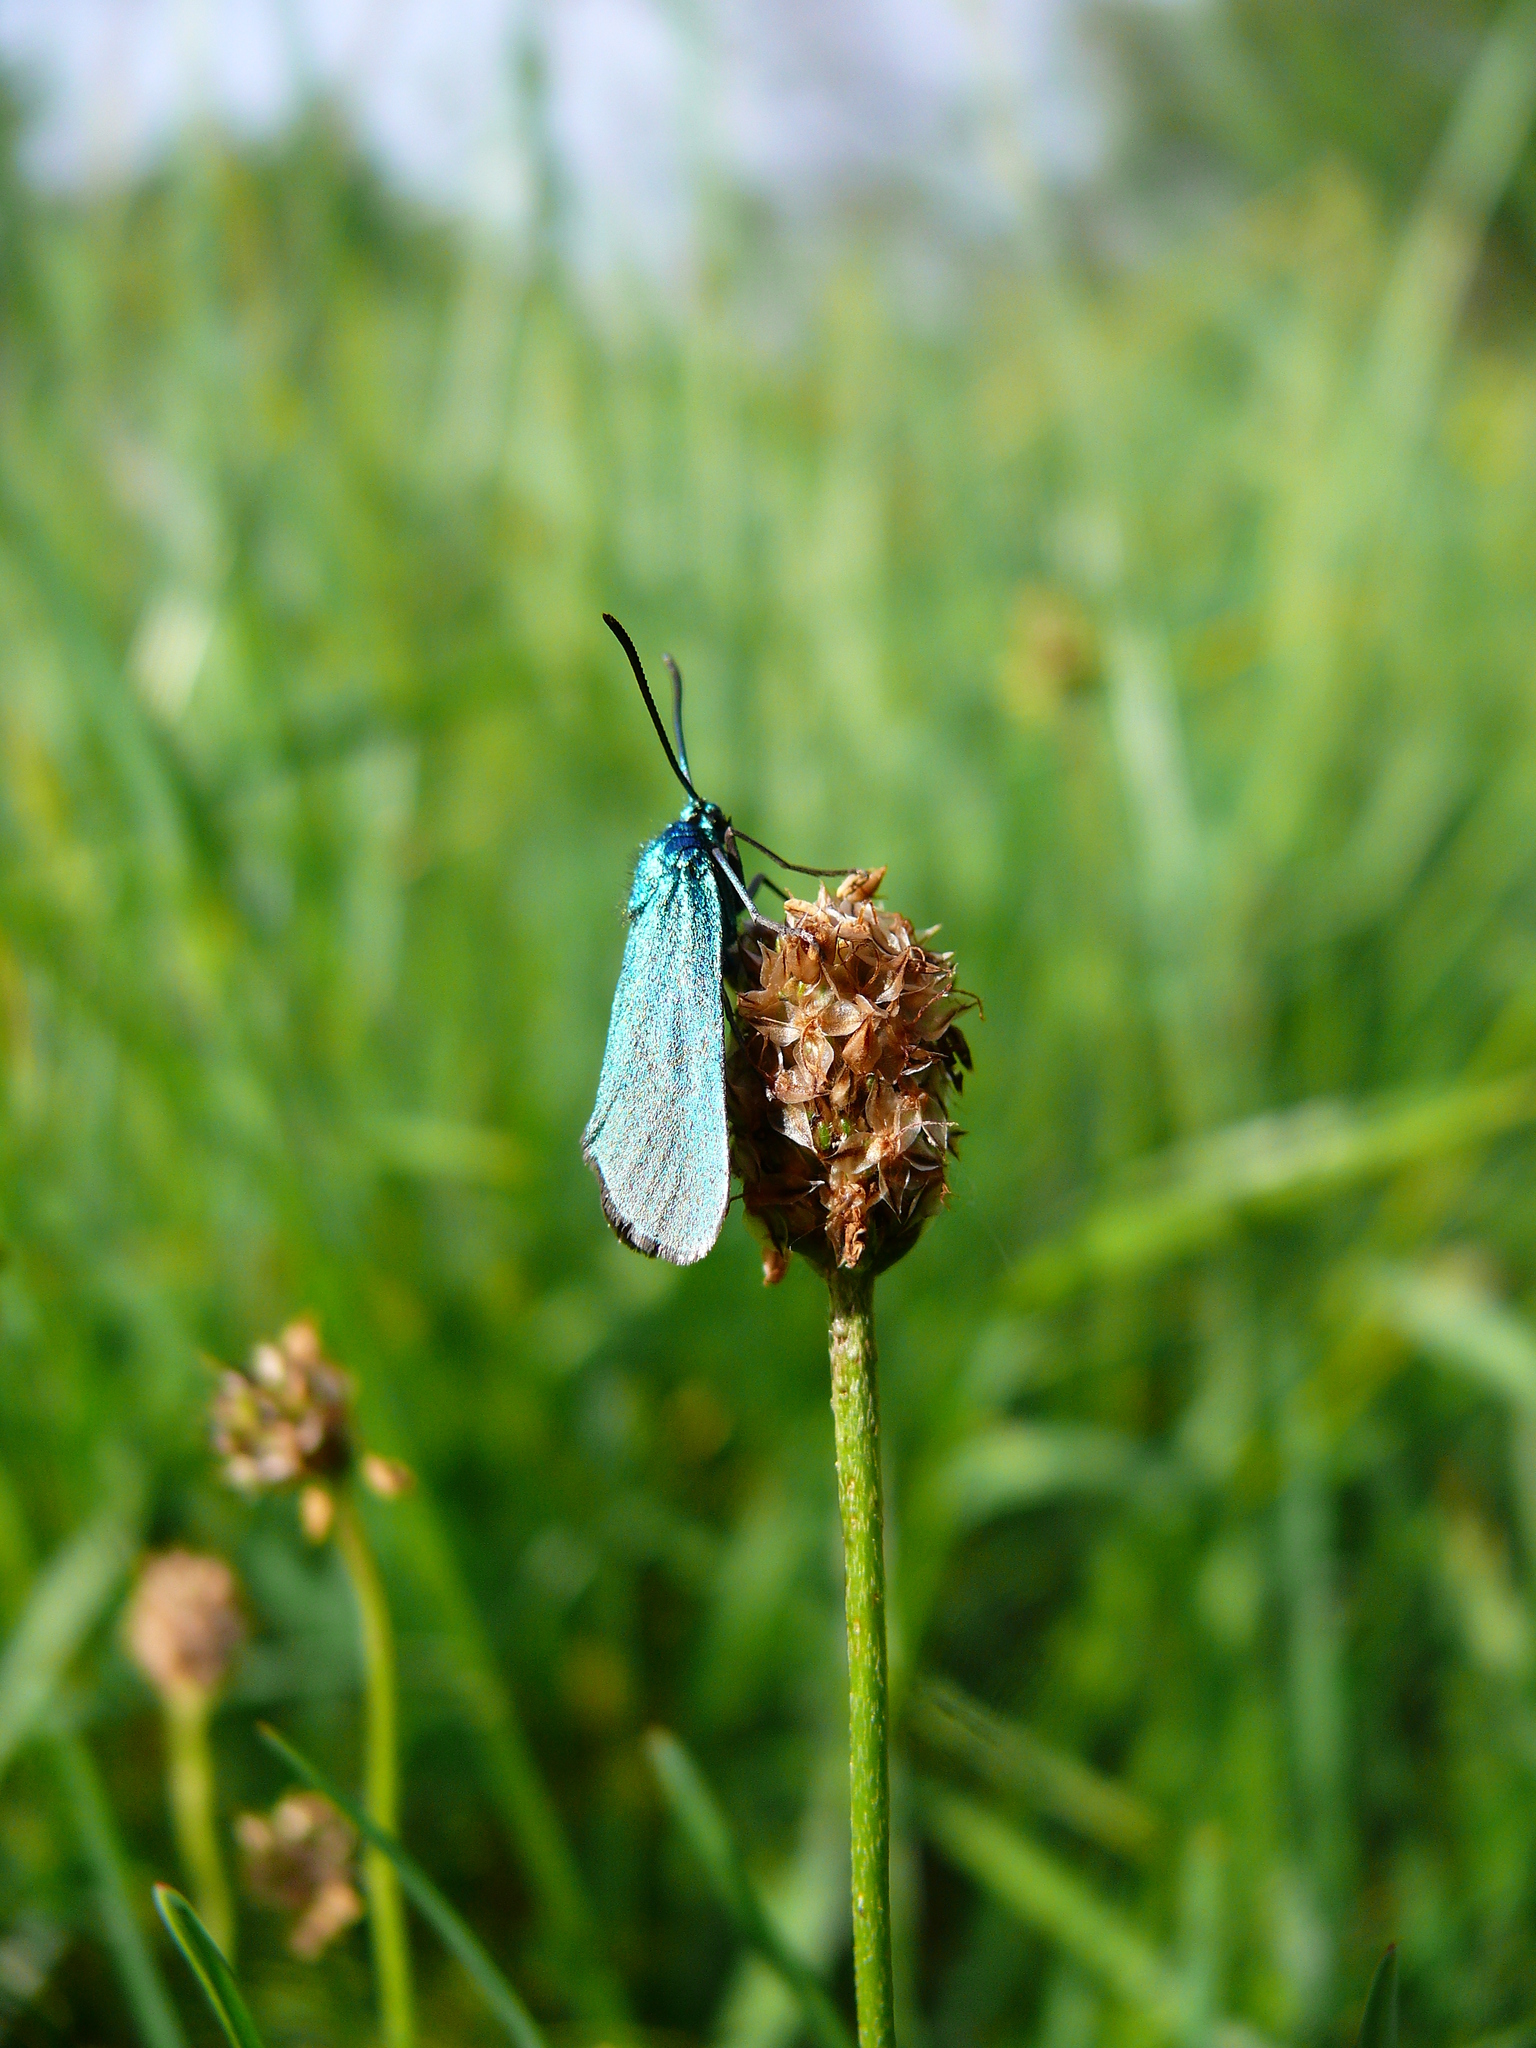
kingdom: Animalia
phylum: Arthropoda
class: Insecta
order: Lepidoptera
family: Zygaenidae
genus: Adscita
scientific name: Adscita statices
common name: Forester
